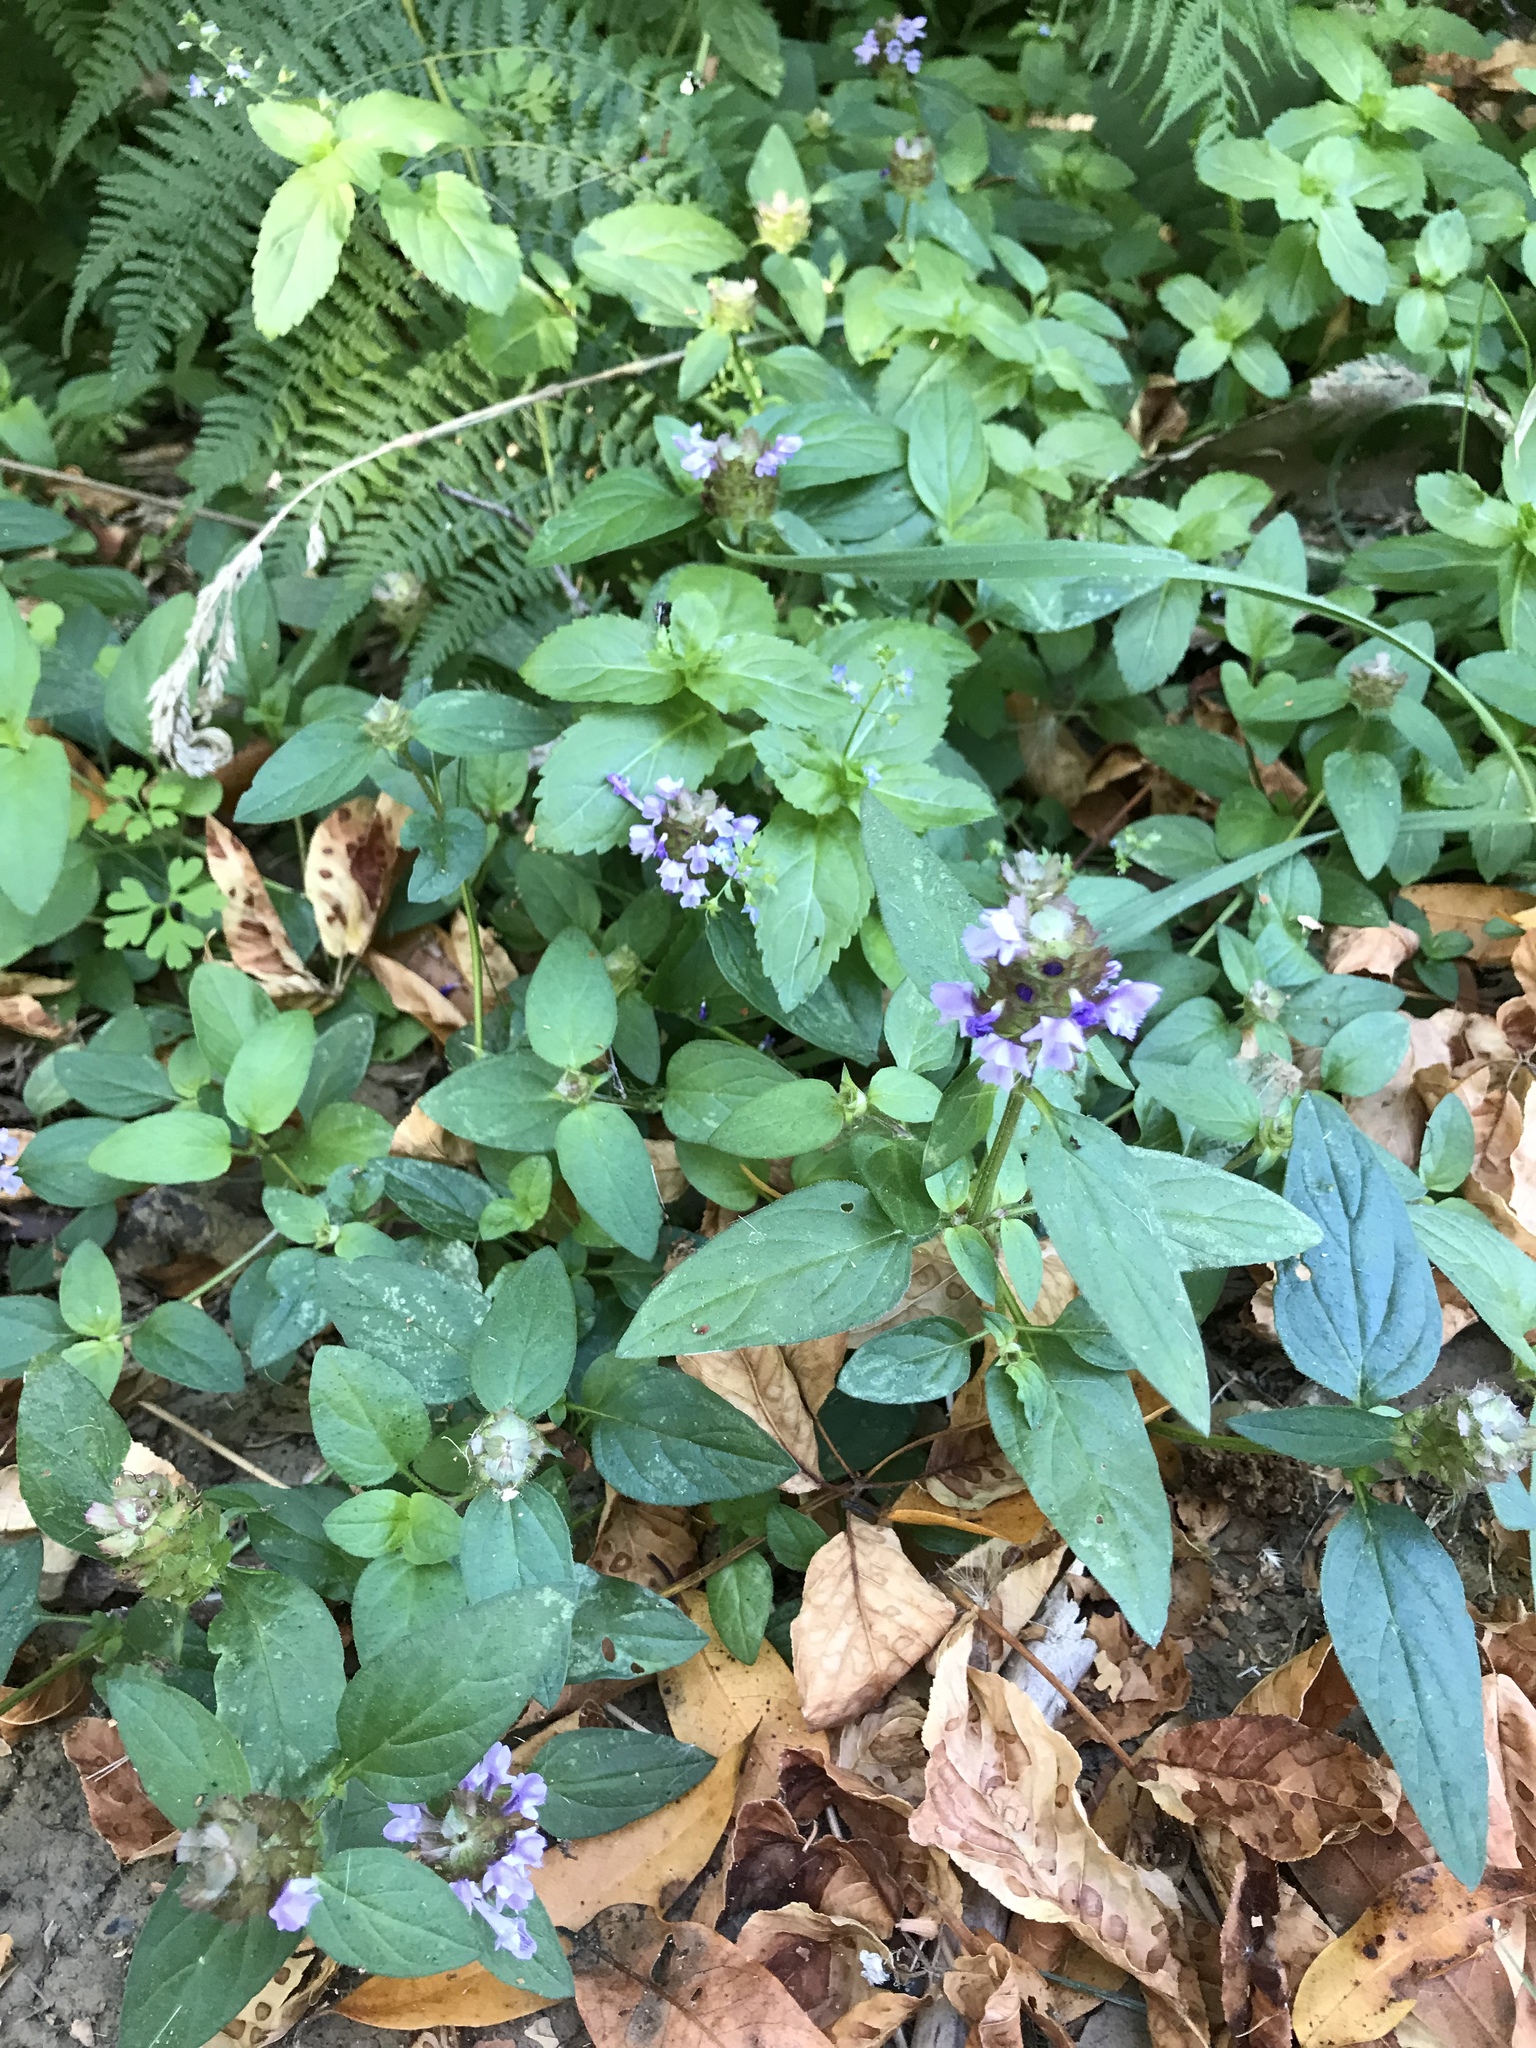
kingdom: Plantae
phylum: Tracheophyta
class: Magnoliopsida
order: Lamiales
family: Lamiaceae
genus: Prunella
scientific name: Prunella vulgaris
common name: Heal-all
